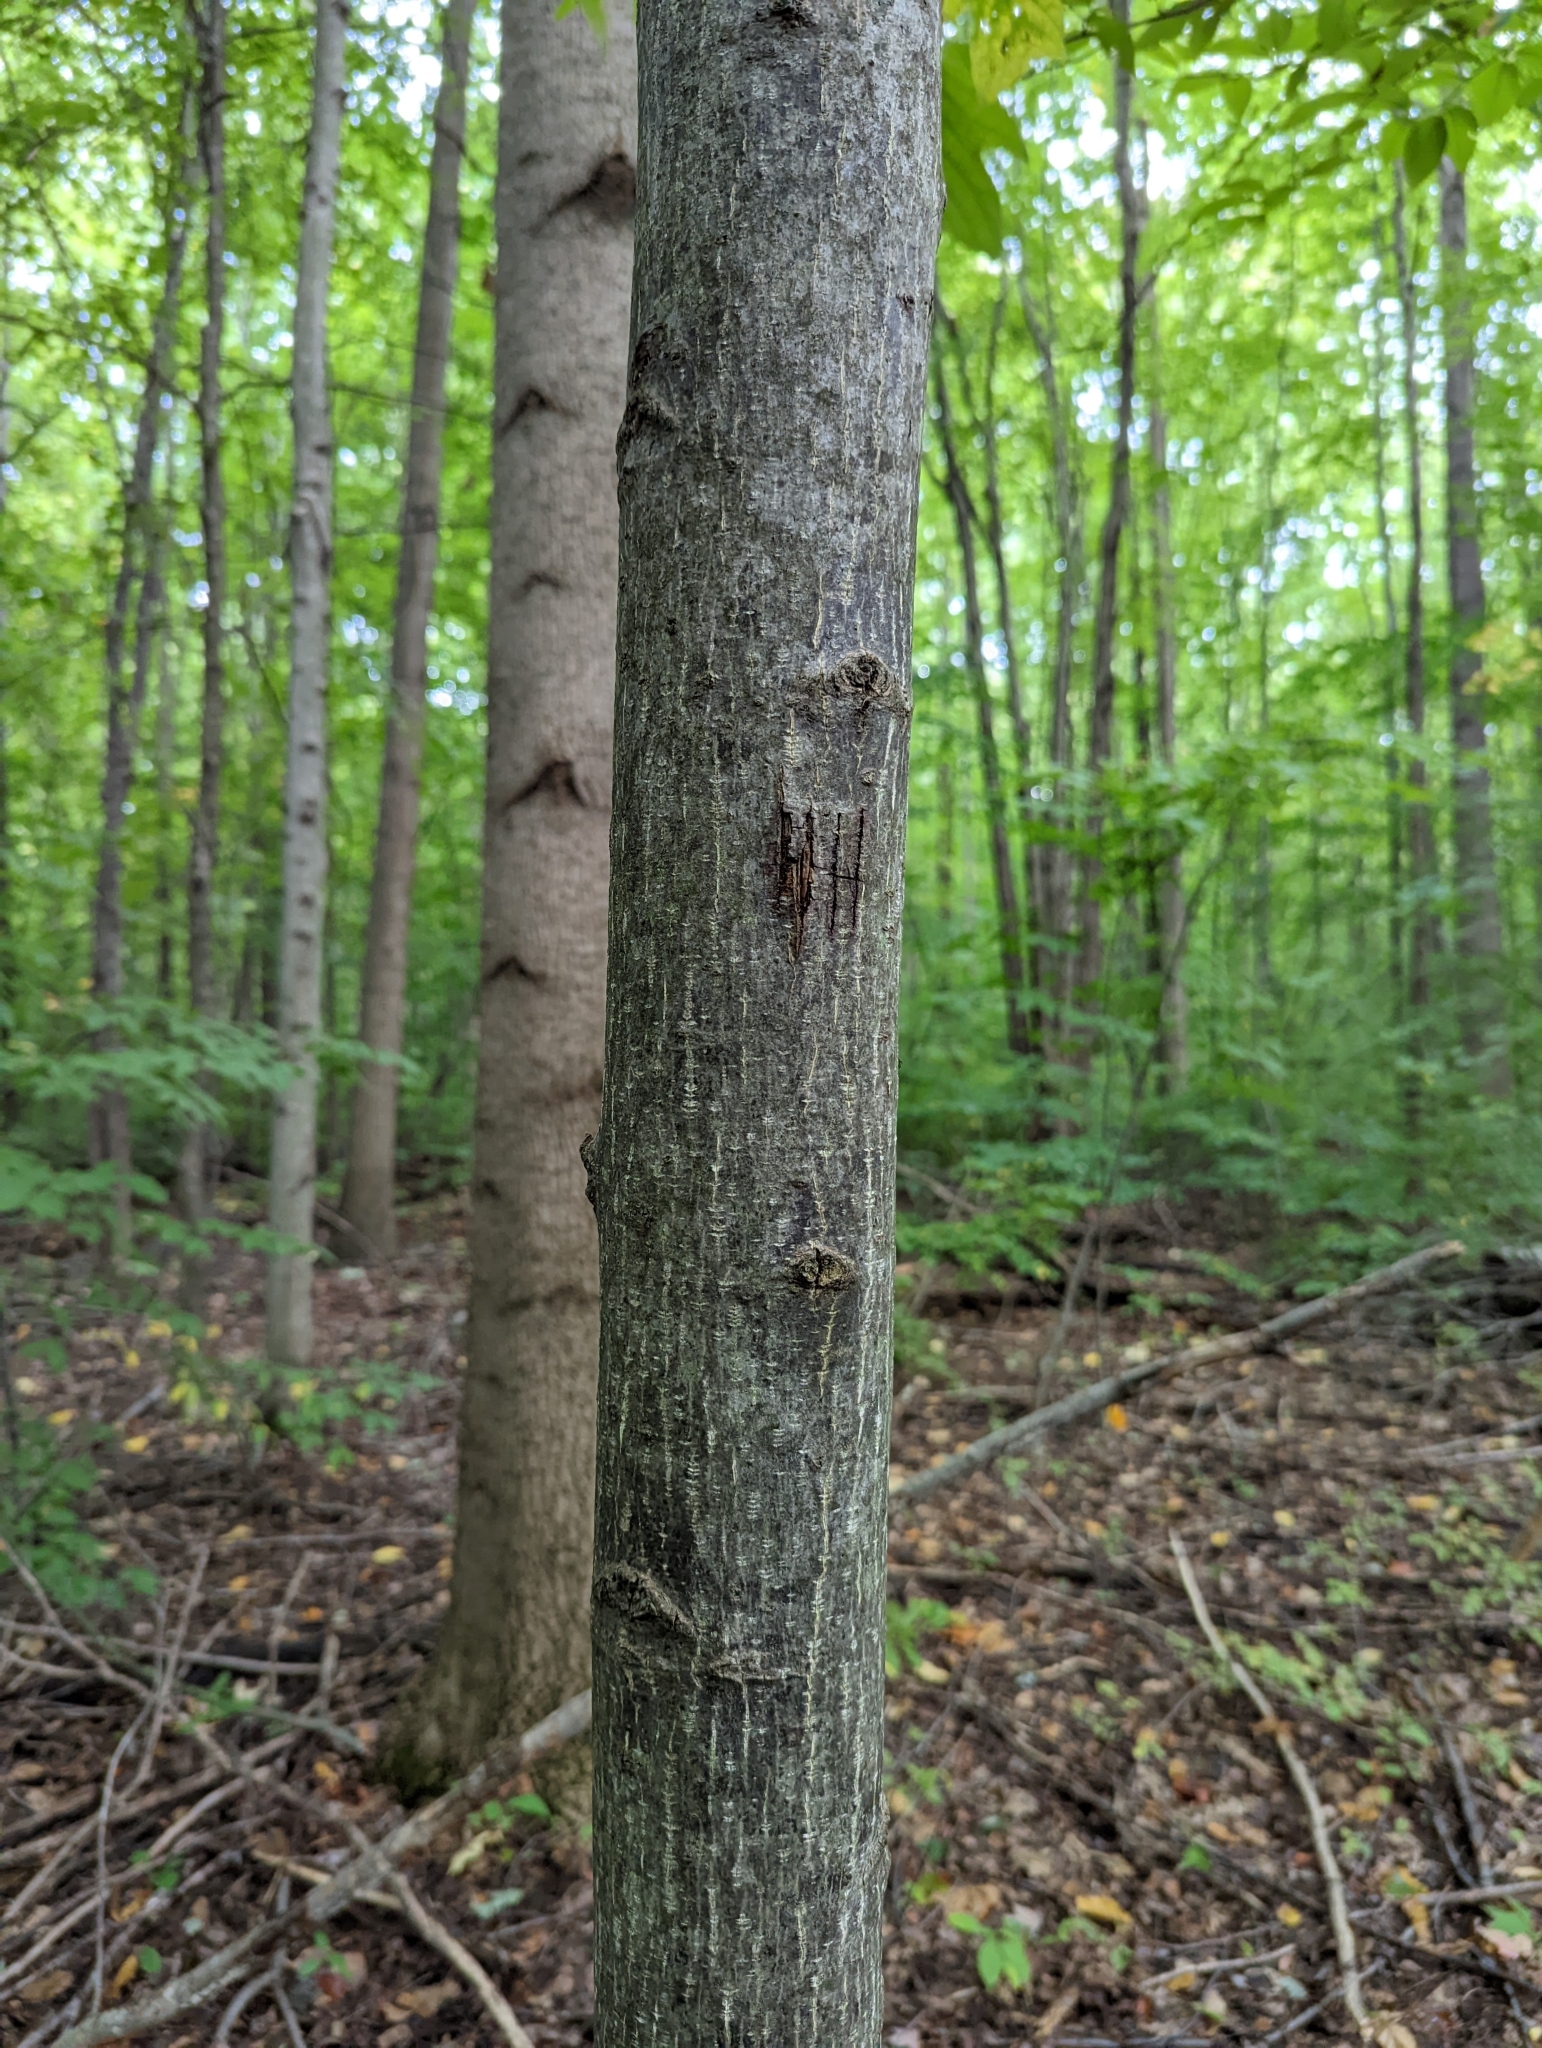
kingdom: Plantae
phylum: Tracheophyta
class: Magnoliopsida
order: Magnoliales
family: Magnoliaceae
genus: Liriodendron
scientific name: Liriodendron tulipifera
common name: Tulip tree
